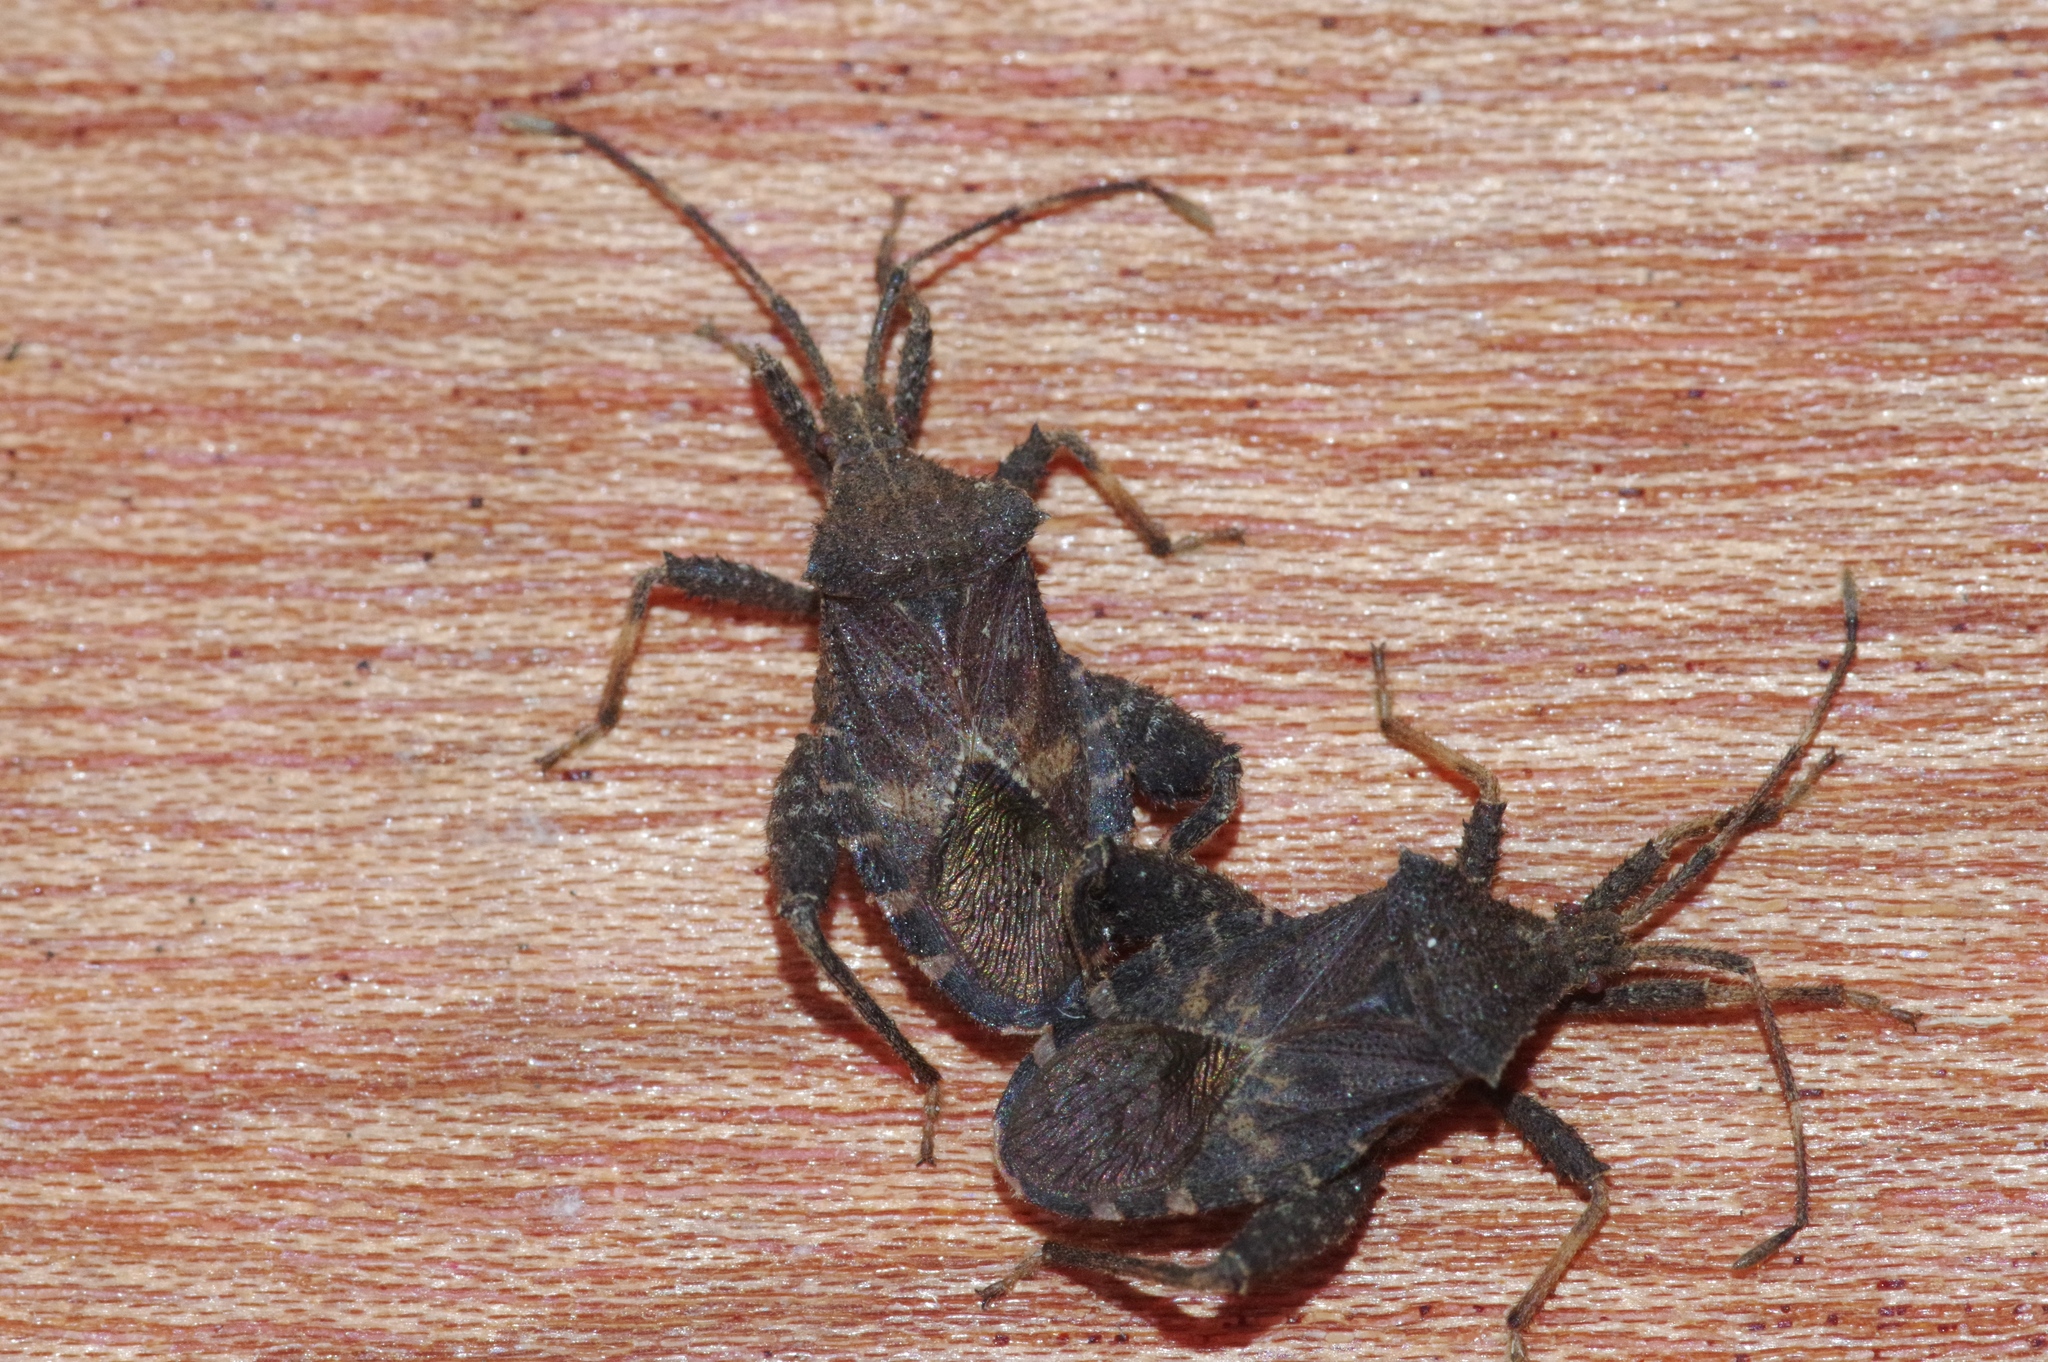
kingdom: Animalia
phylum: Arthropoda
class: Insecta
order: Hemiptera
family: Coreidae
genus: Acanthocoris
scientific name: Acanthocoris sordidus
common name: Winter cherry bug
